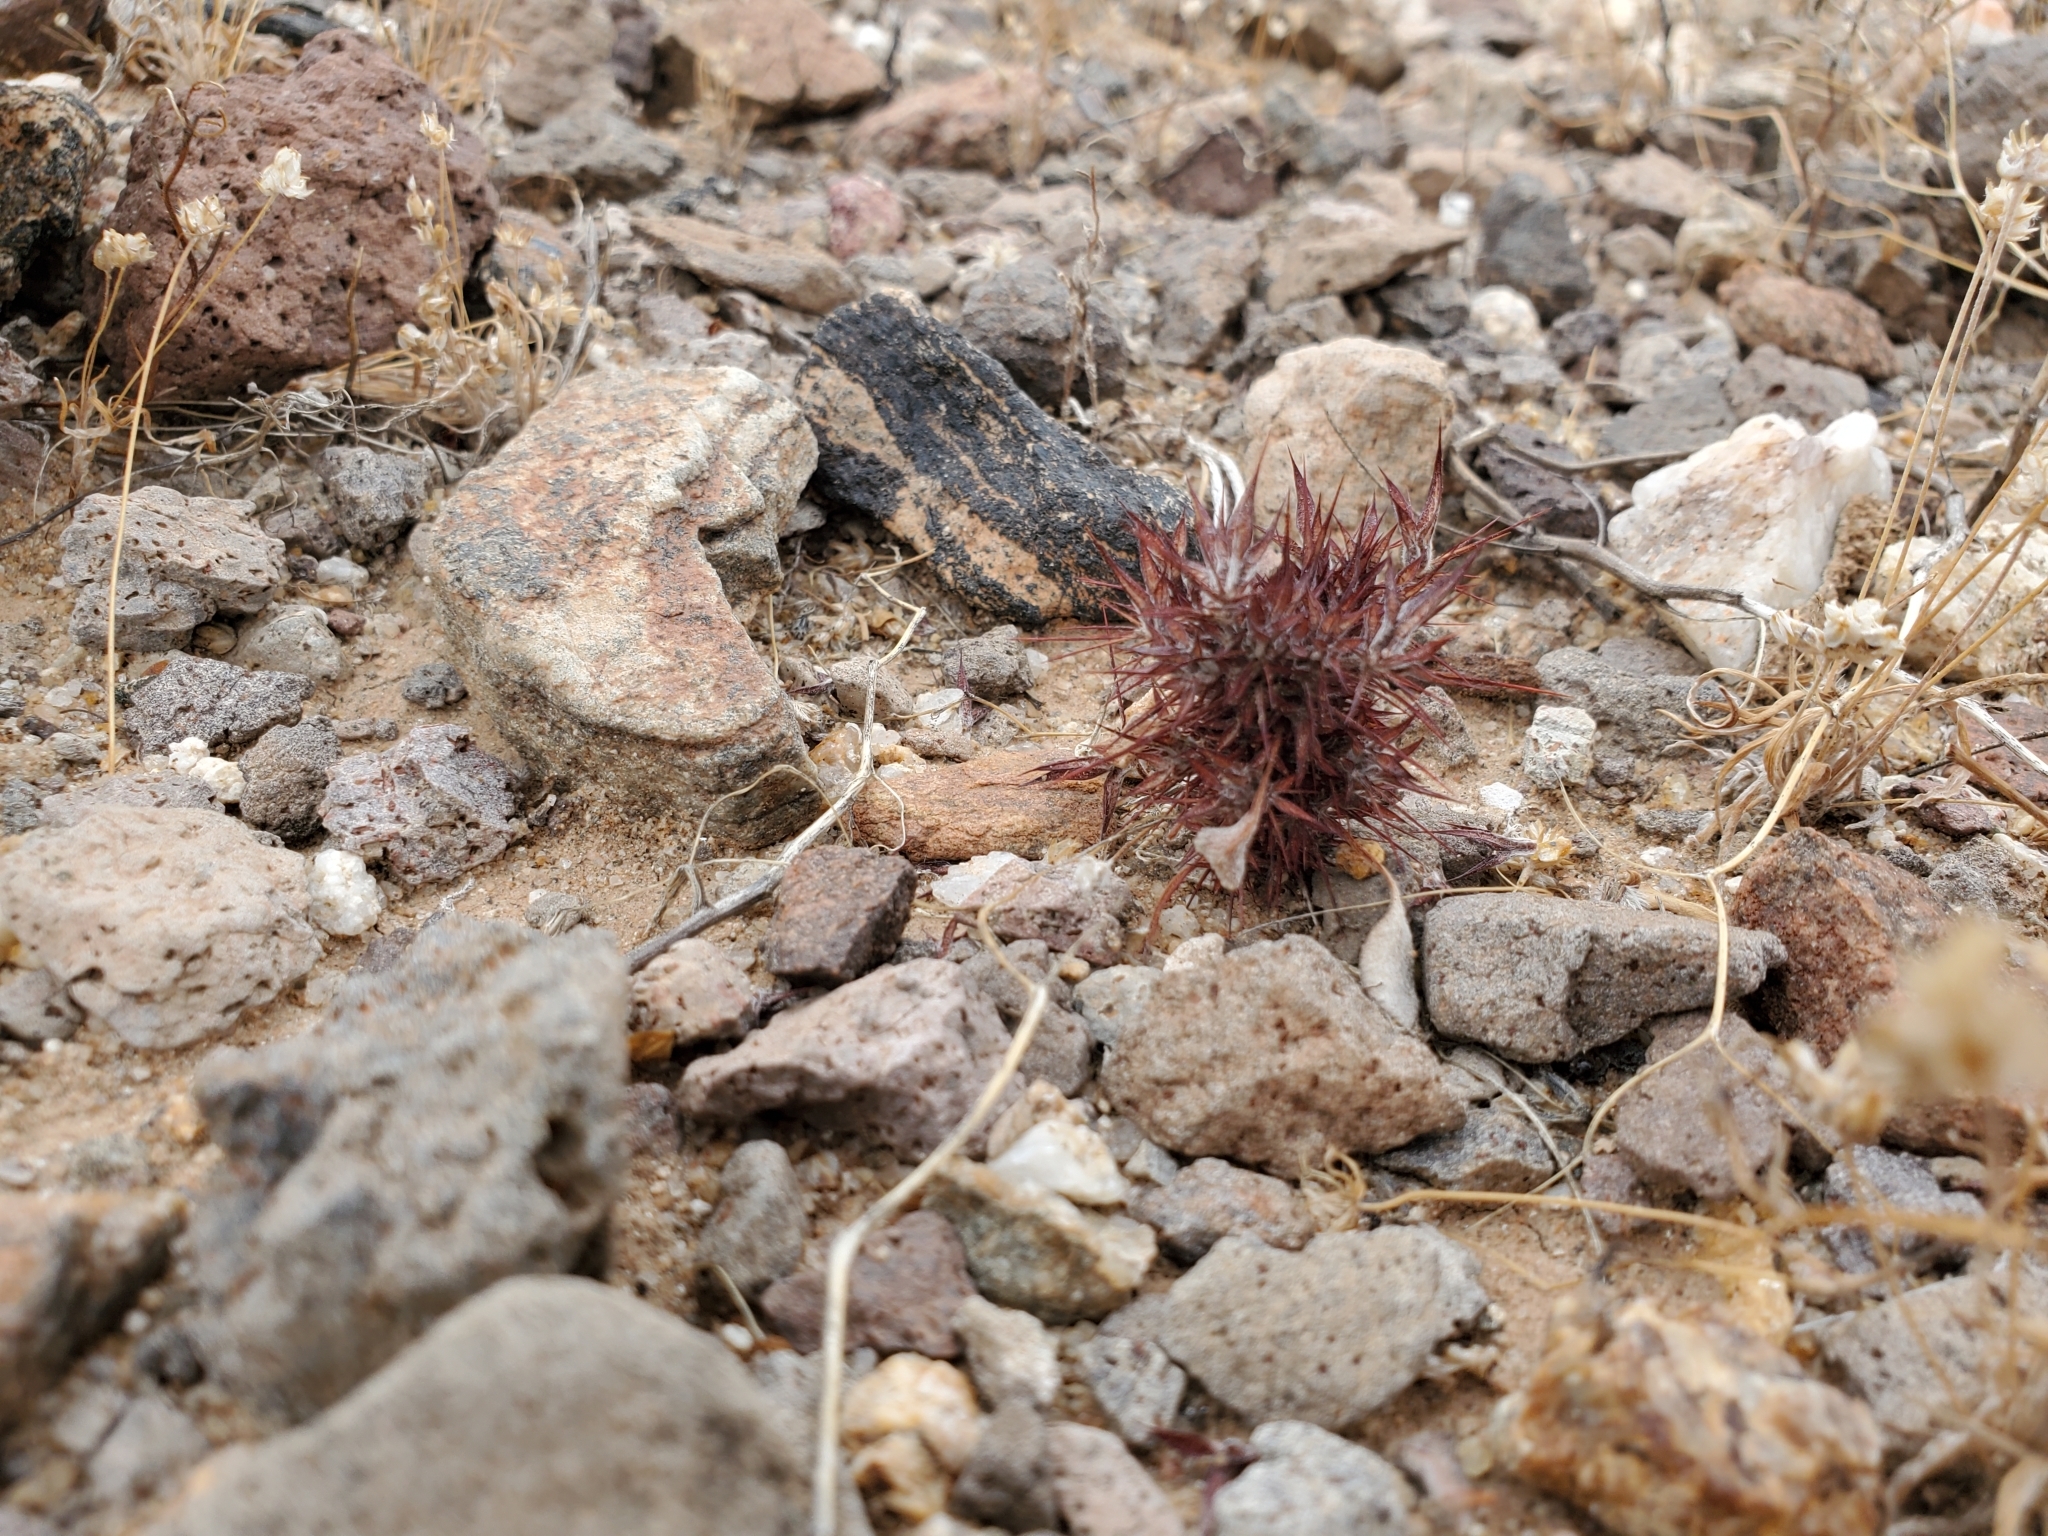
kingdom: Plantae
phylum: Tracheophyta
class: Magnoliopsida
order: Caryophyllales
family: Polygonaceae
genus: Chorizanthe
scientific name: Chorizanthe rigida
